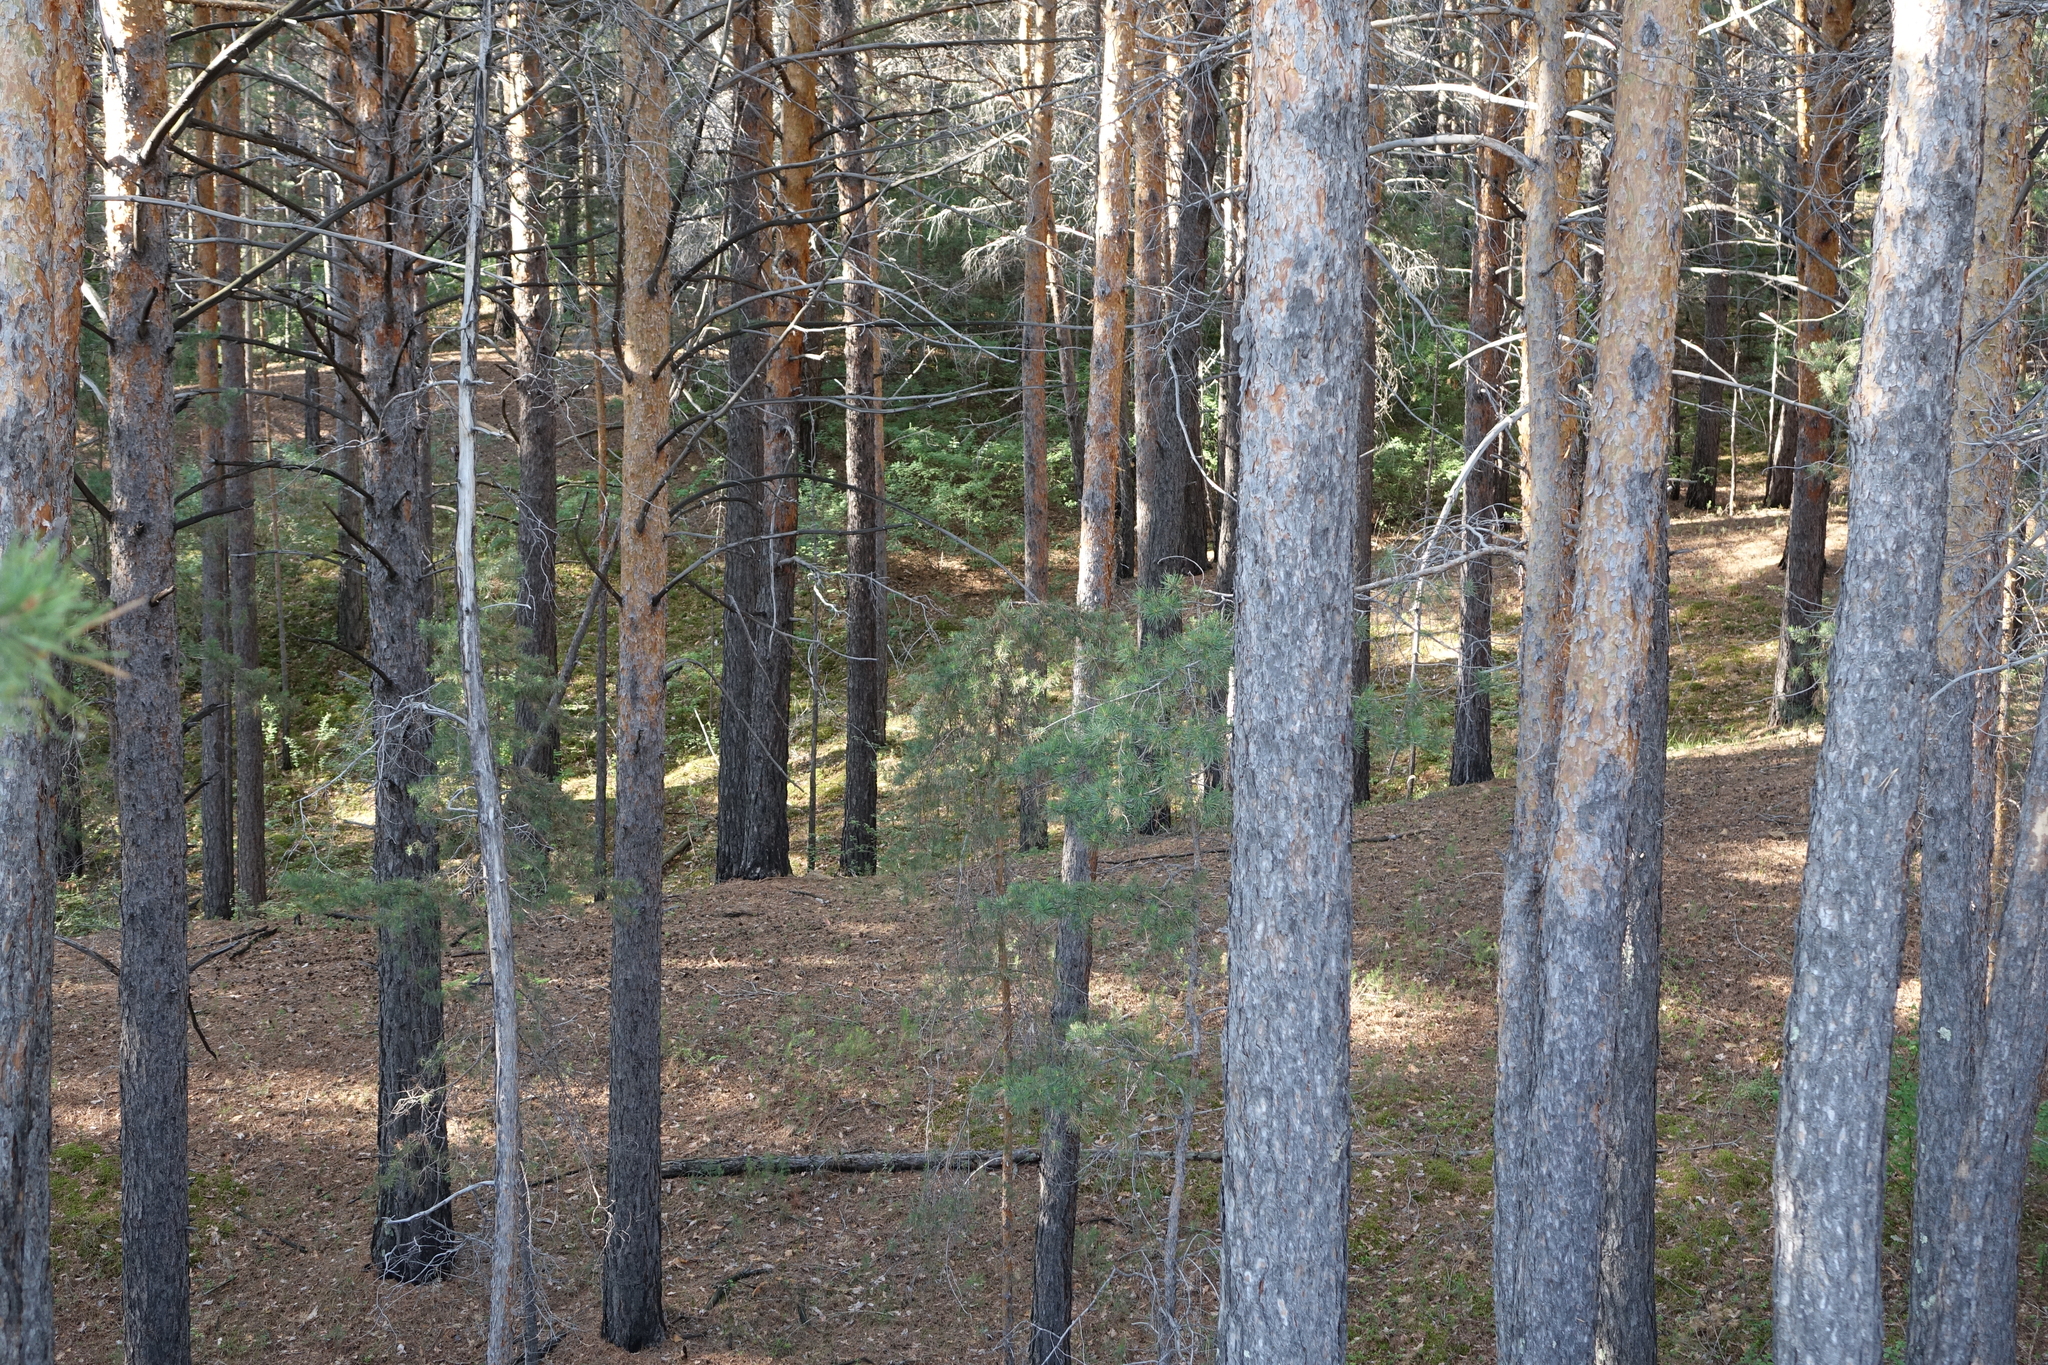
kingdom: Plantae
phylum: Tracheophyta
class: Pinopsida
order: Pinales
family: Pinaceae
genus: Pinus
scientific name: Pinus sylvestris
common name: Scots pine
